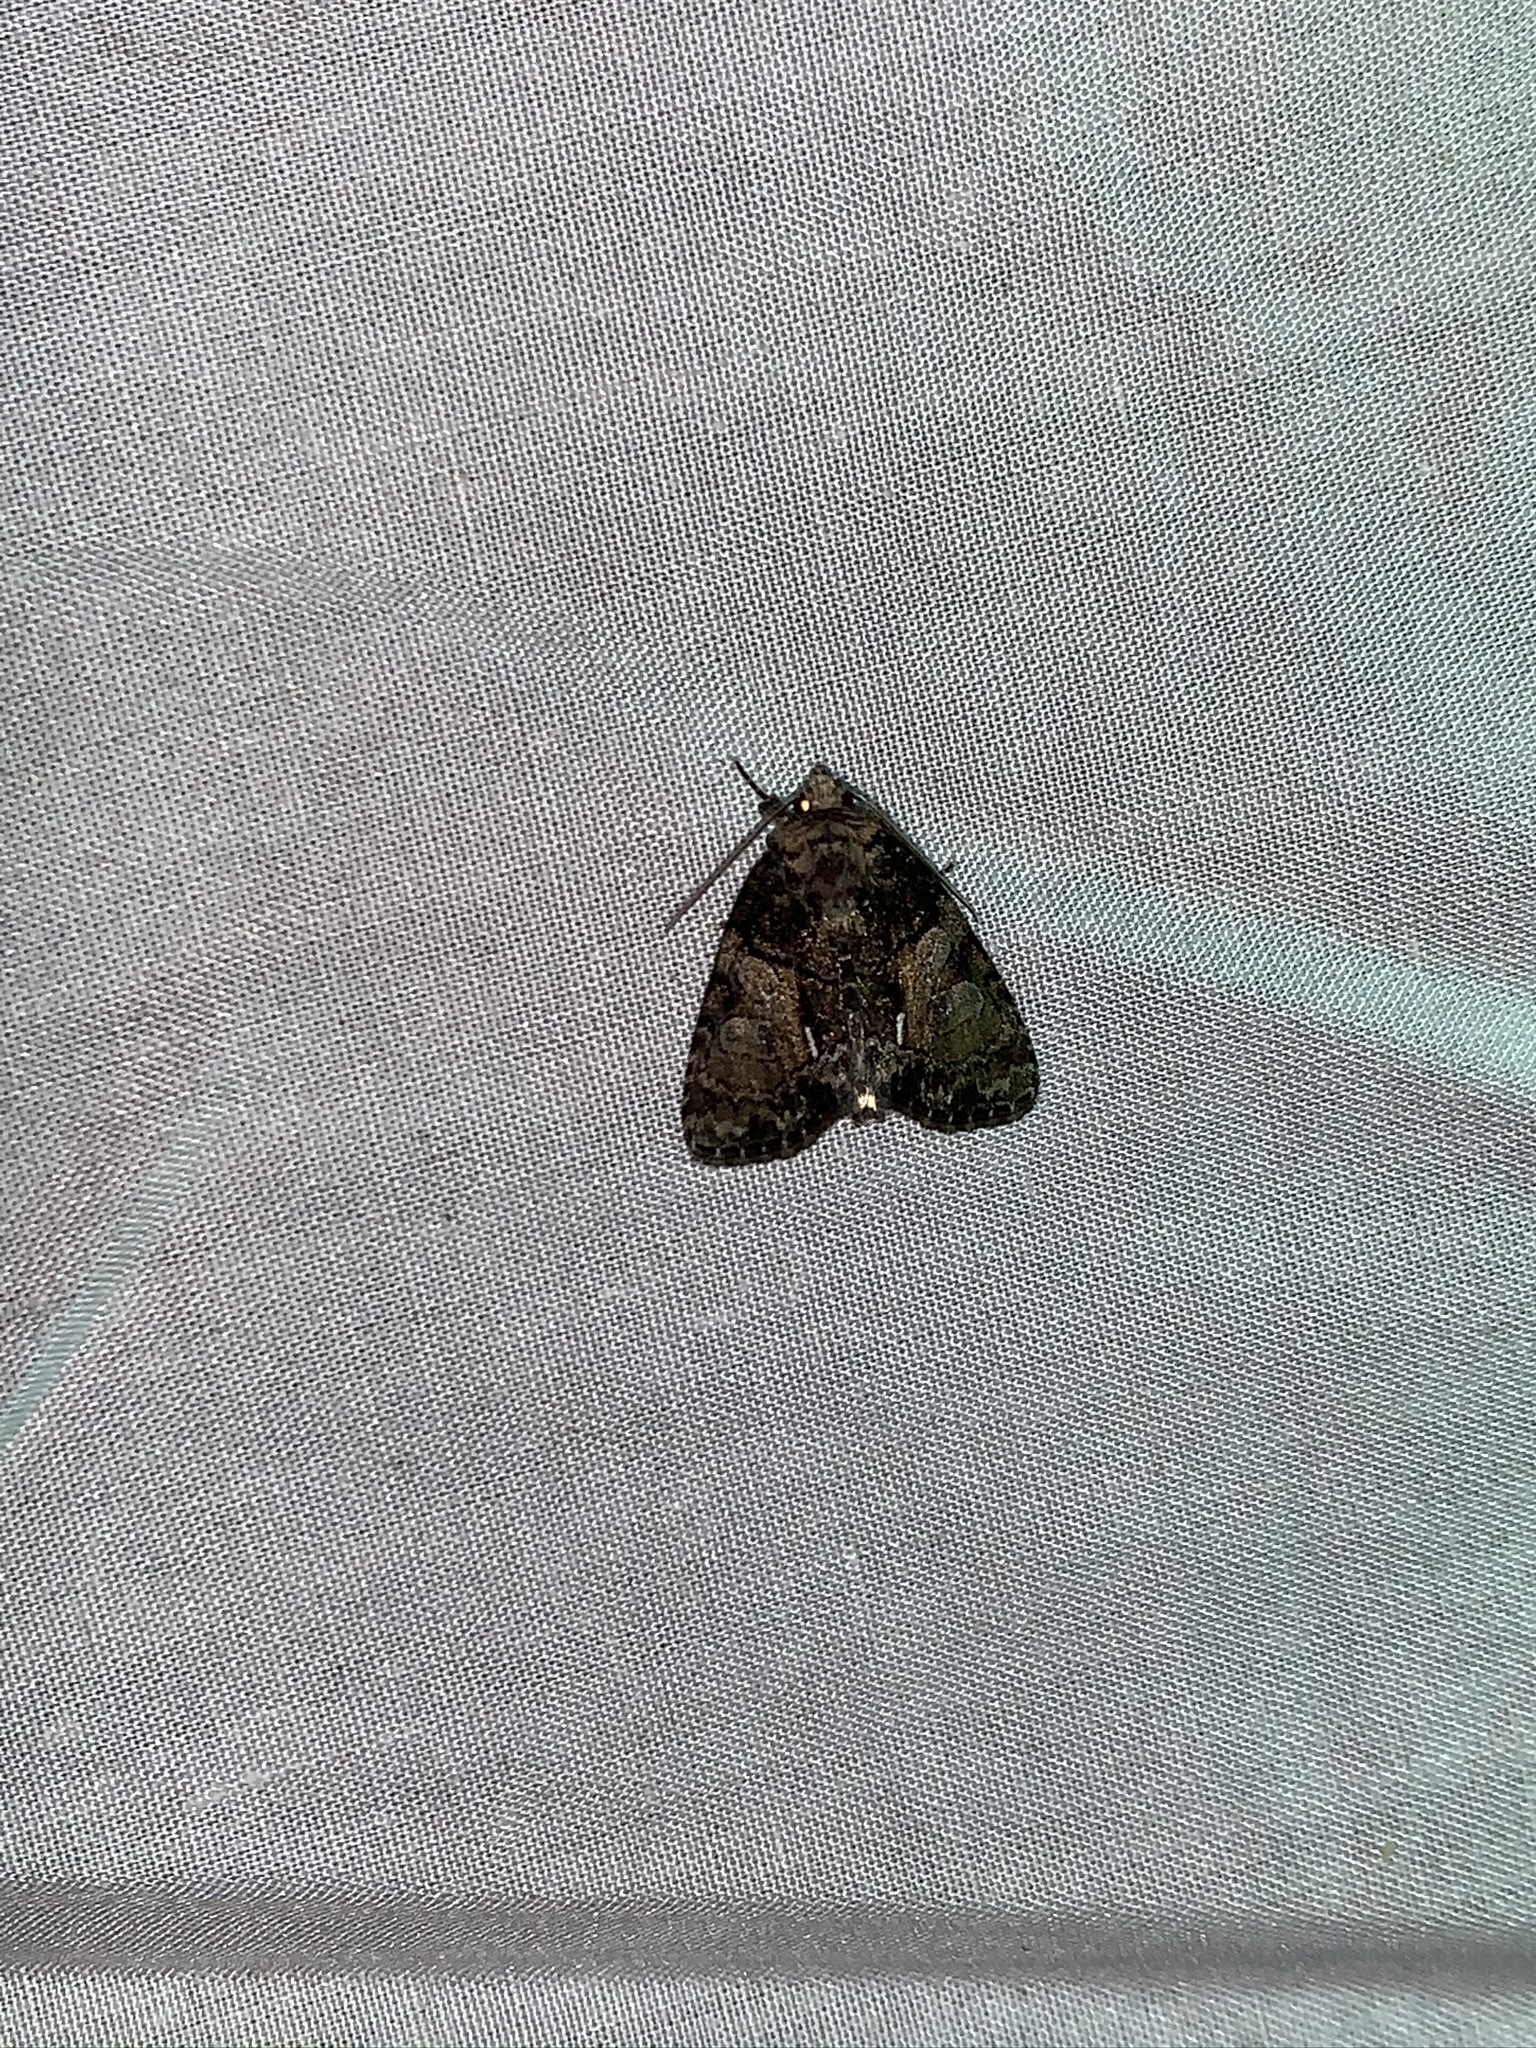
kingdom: Animalia
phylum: Arthropoda
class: Insecta
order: Lepidoptera
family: Noctuidae
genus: Chytonix
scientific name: Chytonix palliatricula
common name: Cloaked marvel
